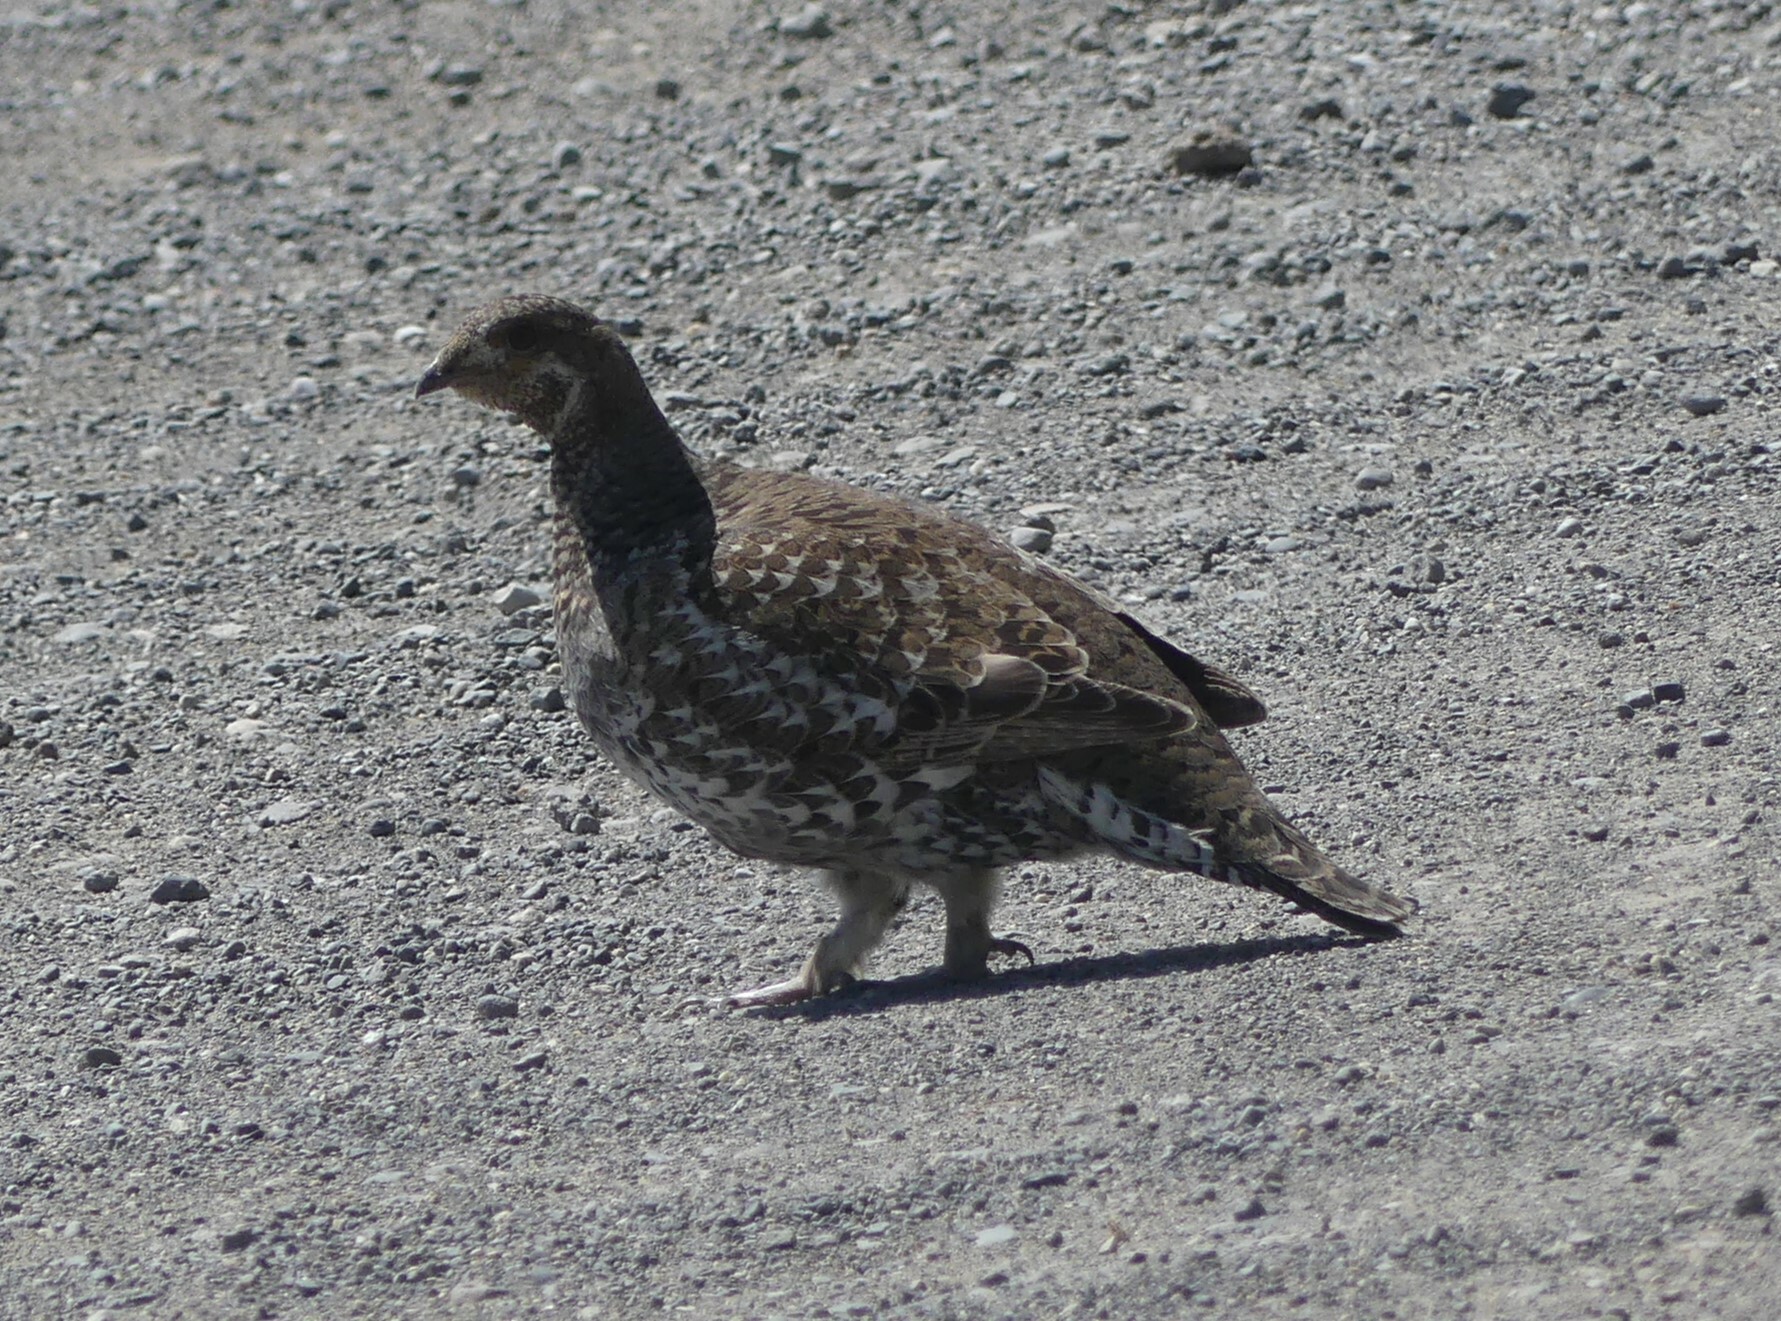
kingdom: Animalia
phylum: Chordata
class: Aves
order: Galliformes
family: Phasianidae
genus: Dendragapus
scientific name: Dendragapus obscurus
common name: Dusky grouse
